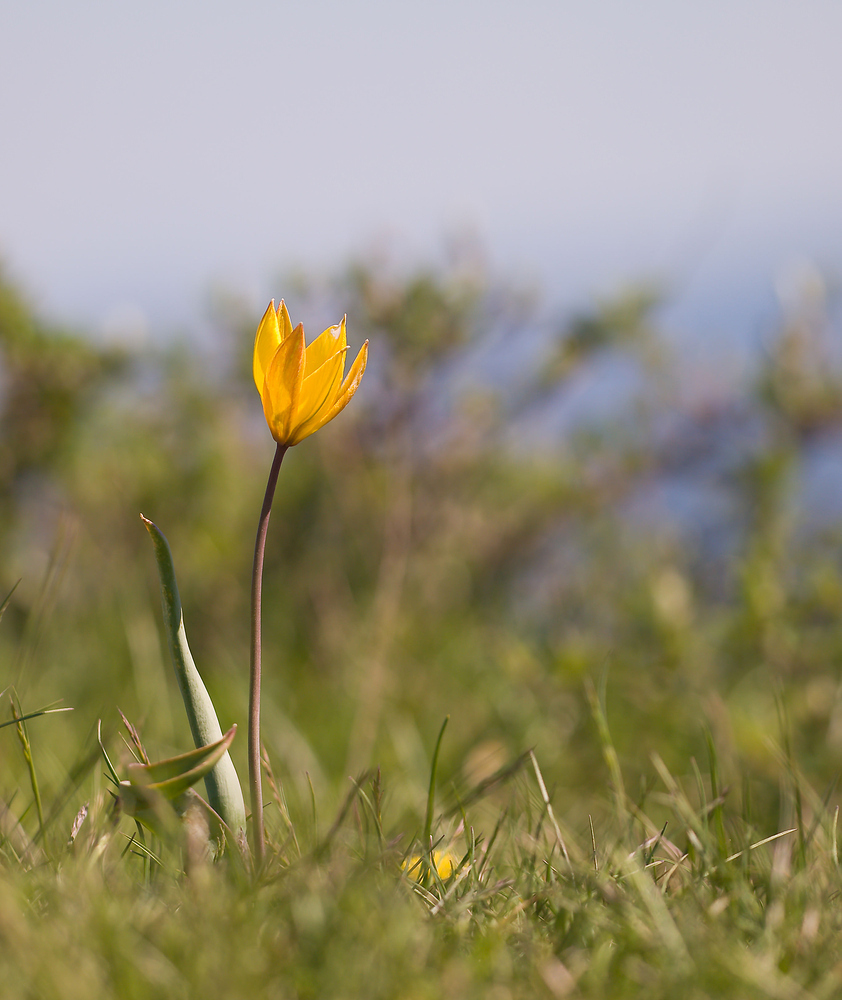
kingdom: Plantae
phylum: Tracheophyta
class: Liliopsida
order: Liliales
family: Liliaceae
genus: Tulipa
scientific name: Tulipa sylvestris
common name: Wild tulip
